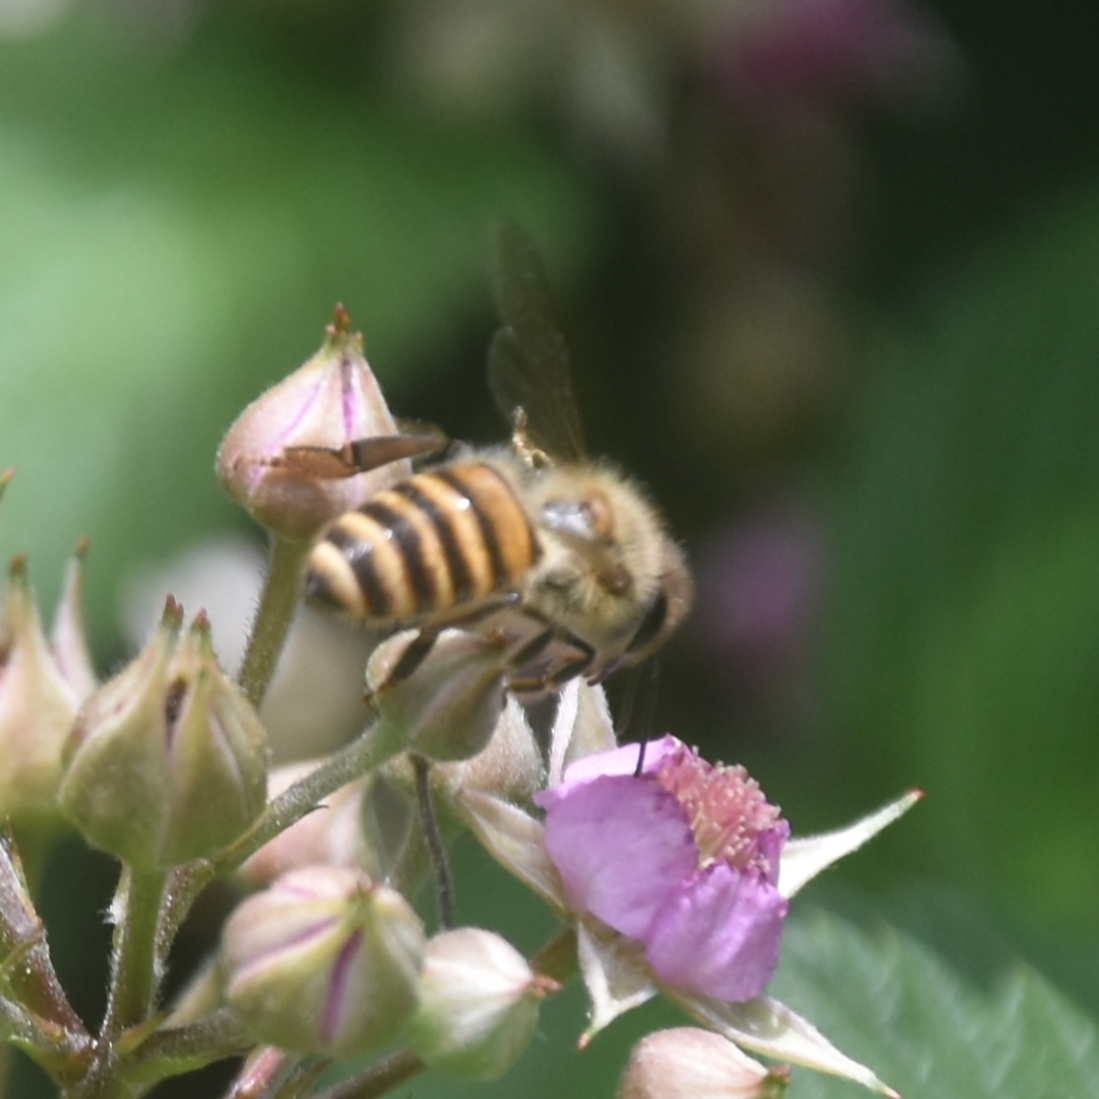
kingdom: Animalia
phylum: Arthropoda
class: Insecta
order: Hymenoptera
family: Apidae
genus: Apis
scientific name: Apis cerana
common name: Honey bee
